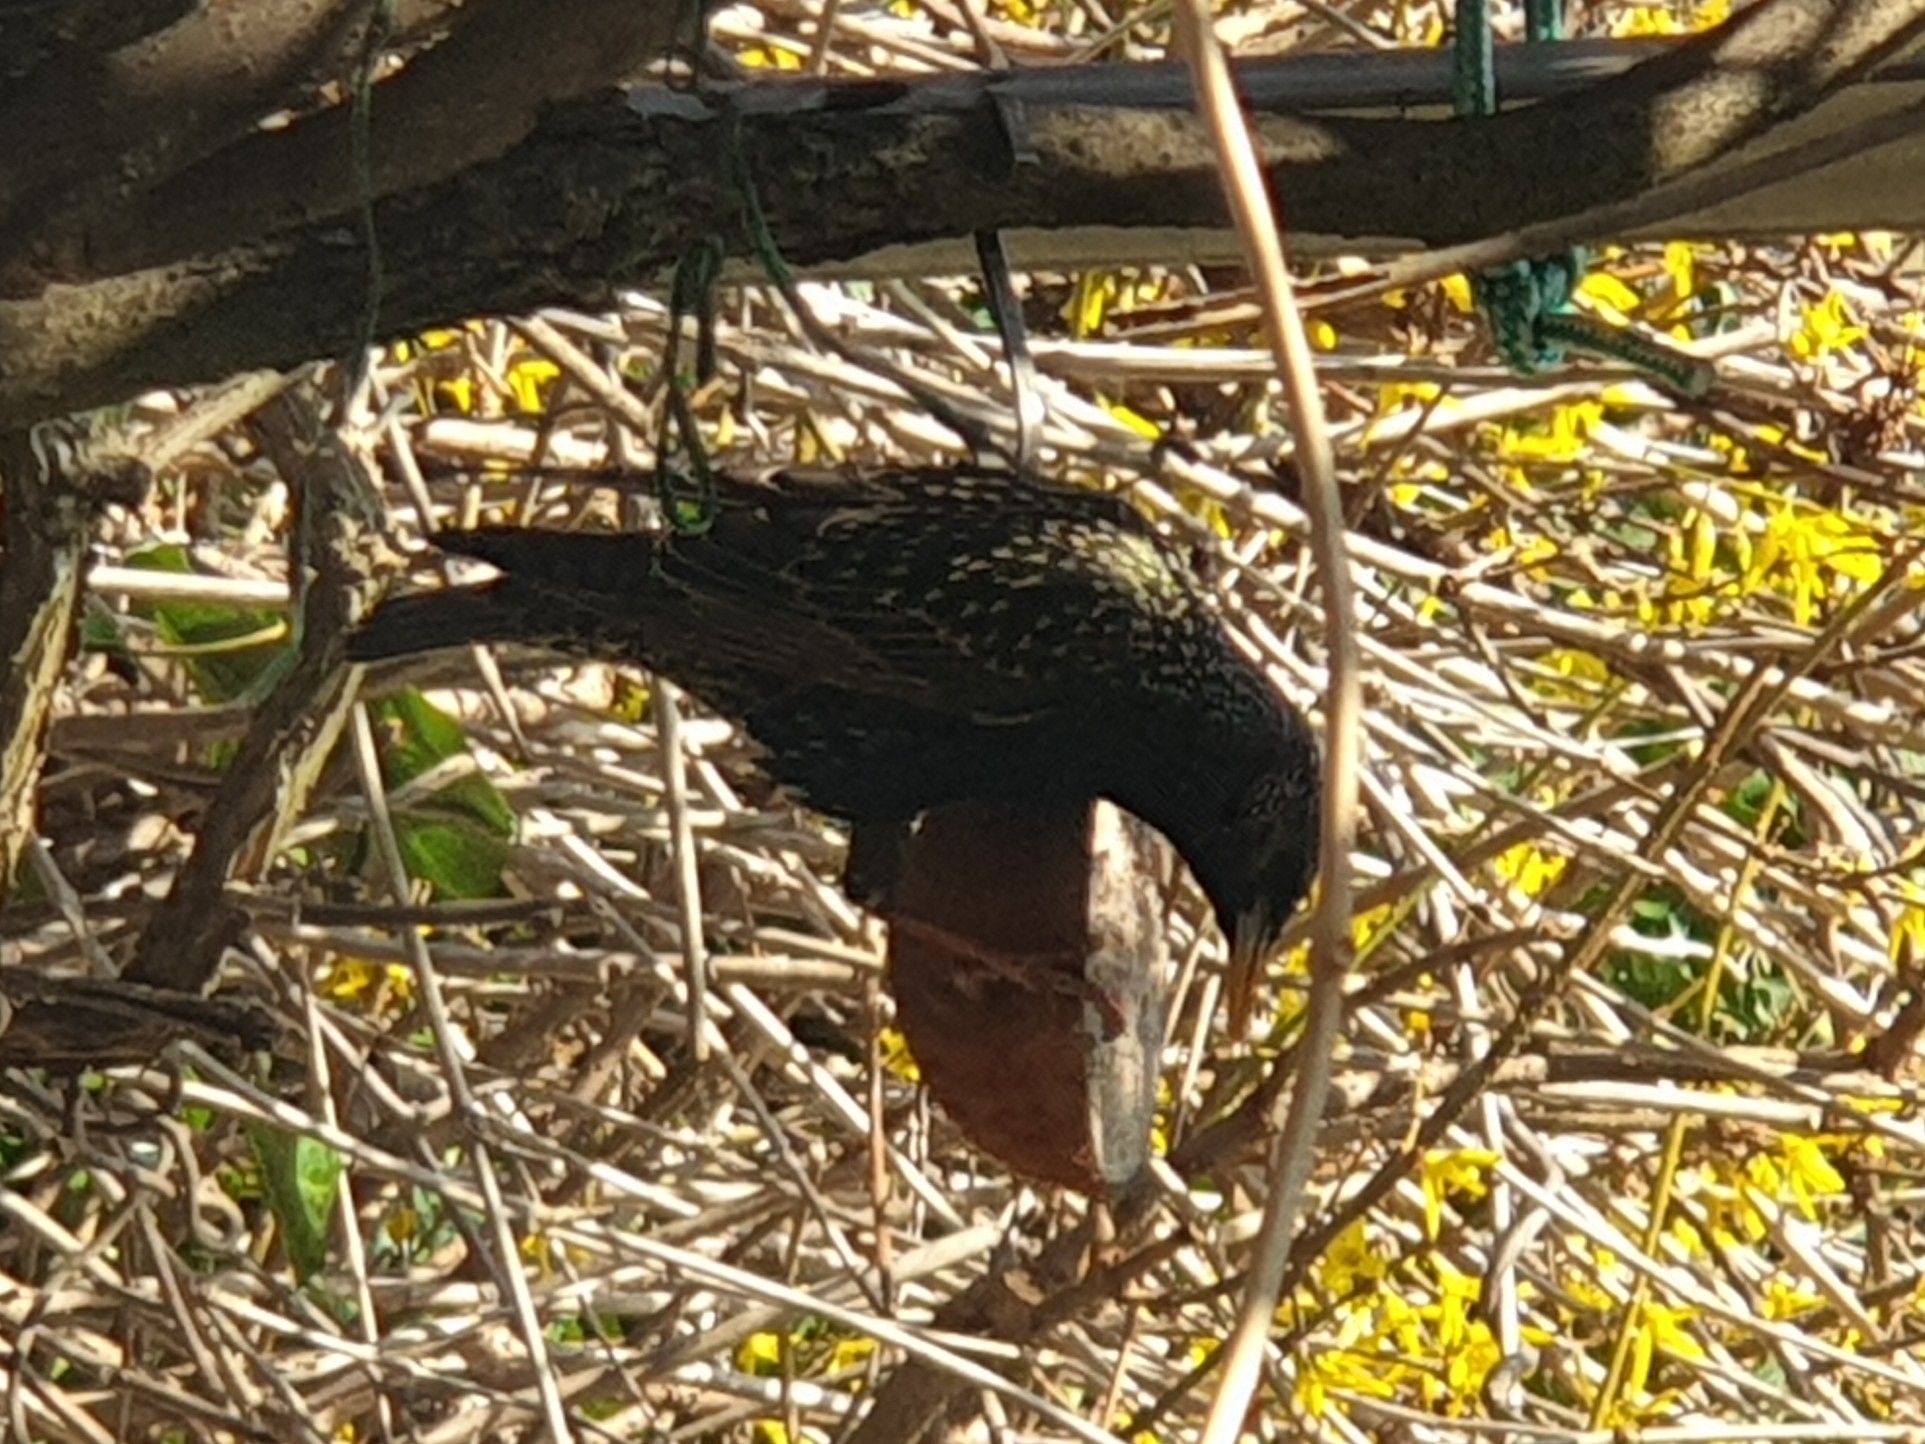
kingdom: Animalia
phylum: Chordata
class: Aves
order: Passeriformes
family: Sturnidae
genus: Sturnus
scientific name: Sturnus vulgaris
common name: Common starling
